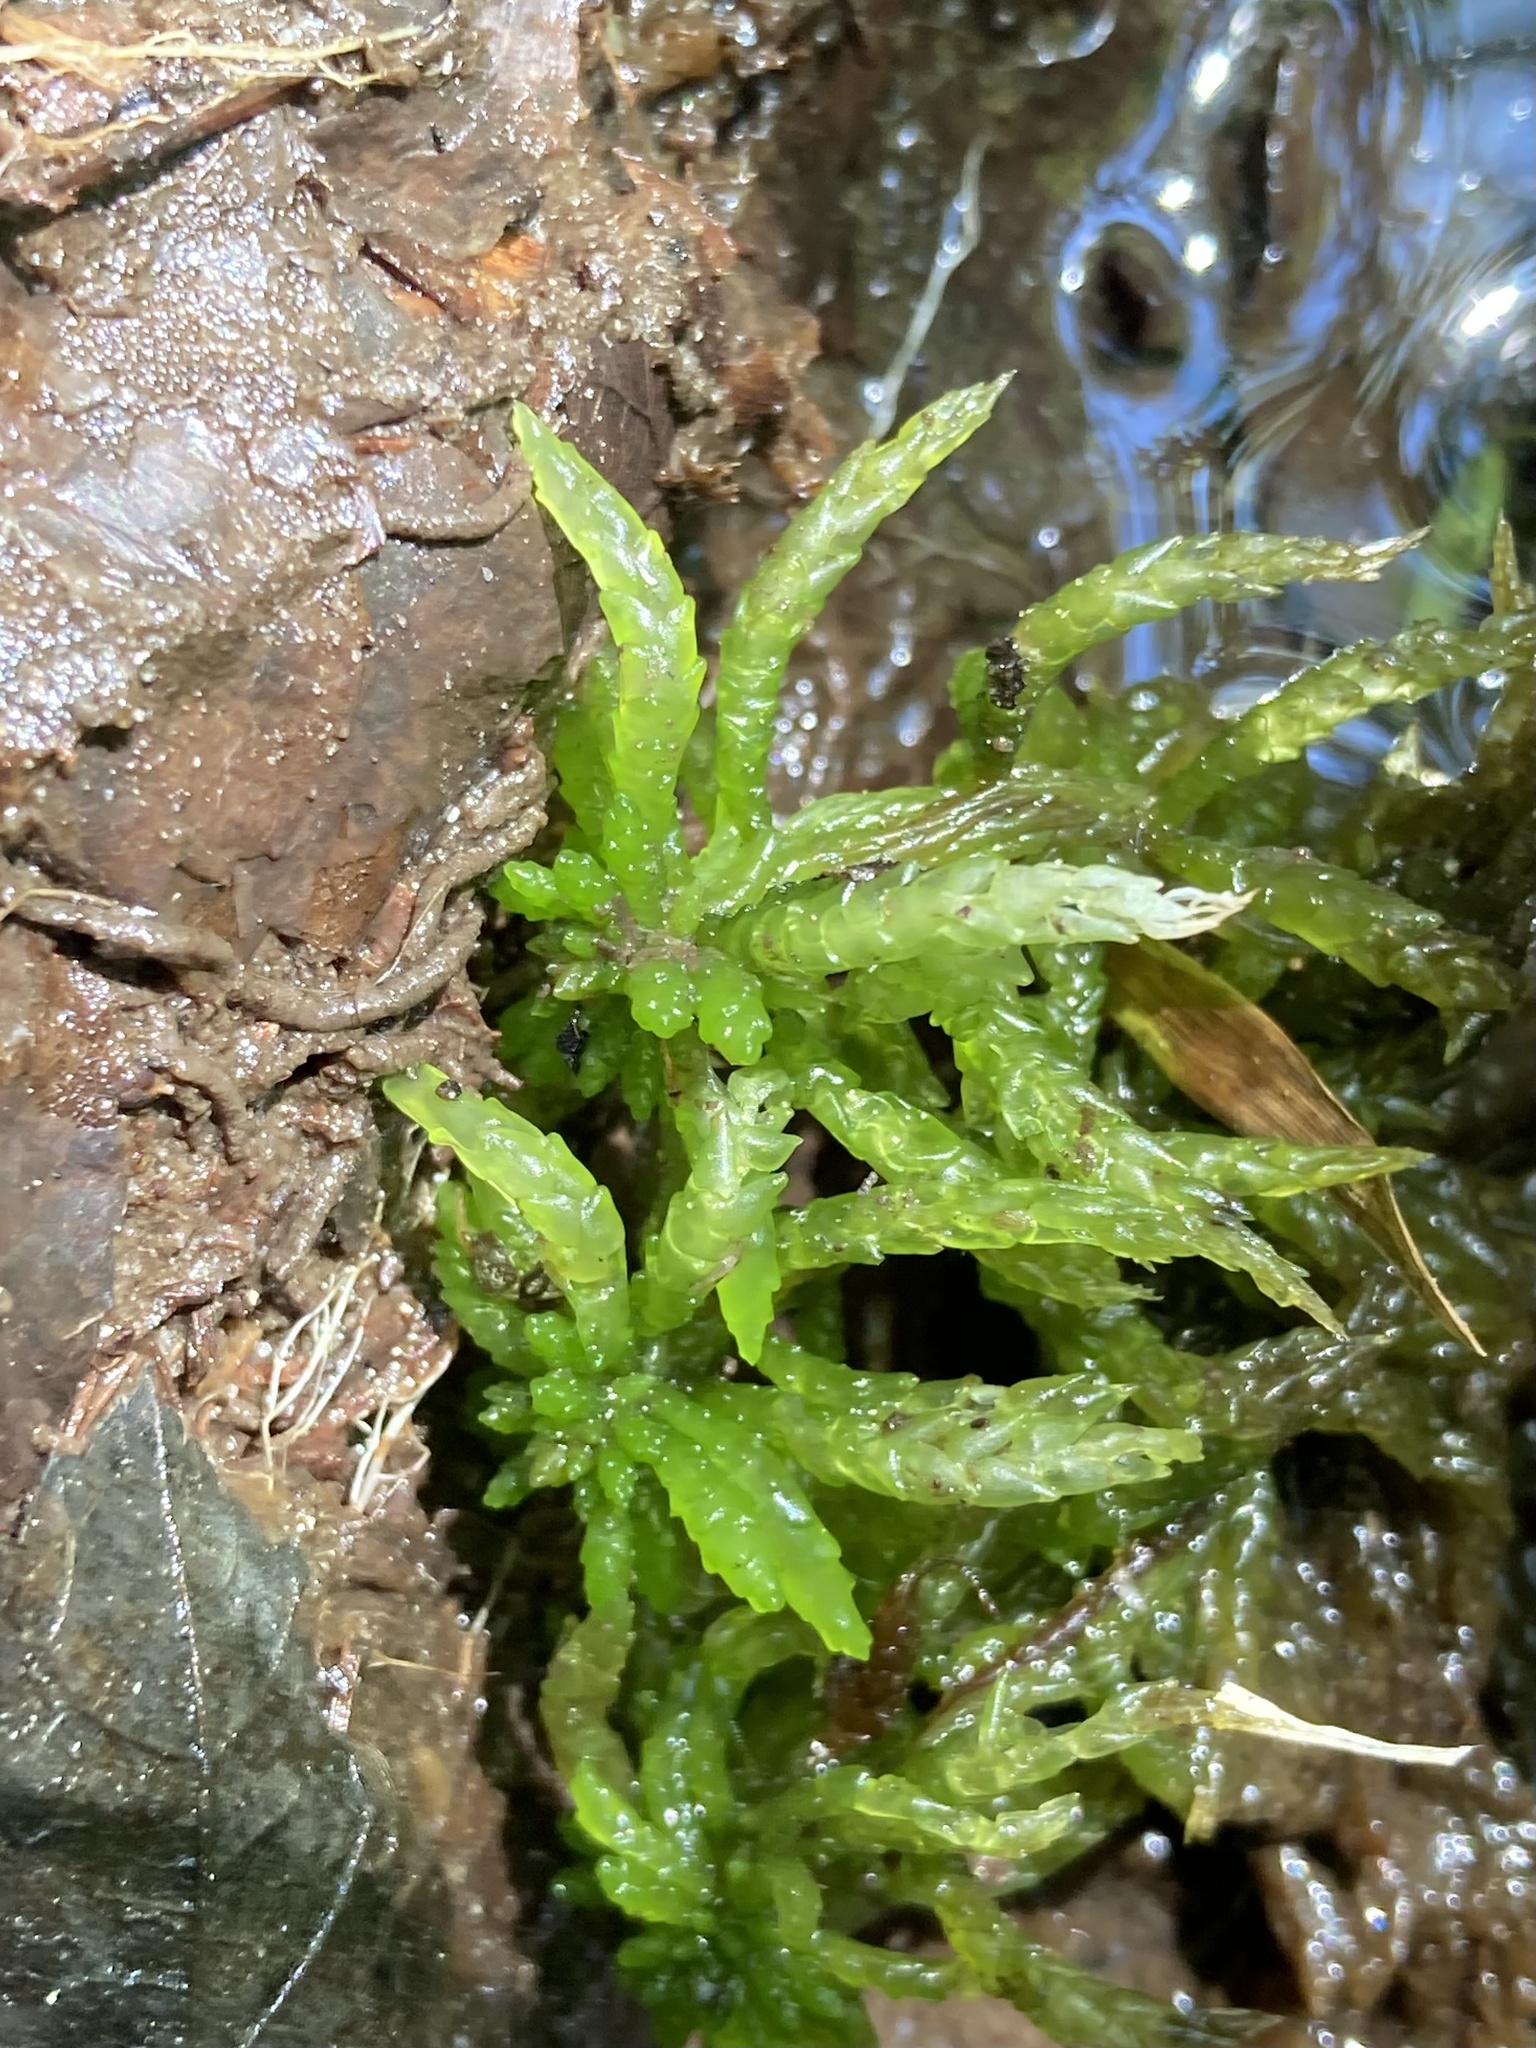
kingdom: Plantae
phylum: Bryophyta
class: Sphagnopsida
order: Sphagnales
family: Sphagnaceae
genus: Sphagnum
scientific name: Sphagnum portoricense
